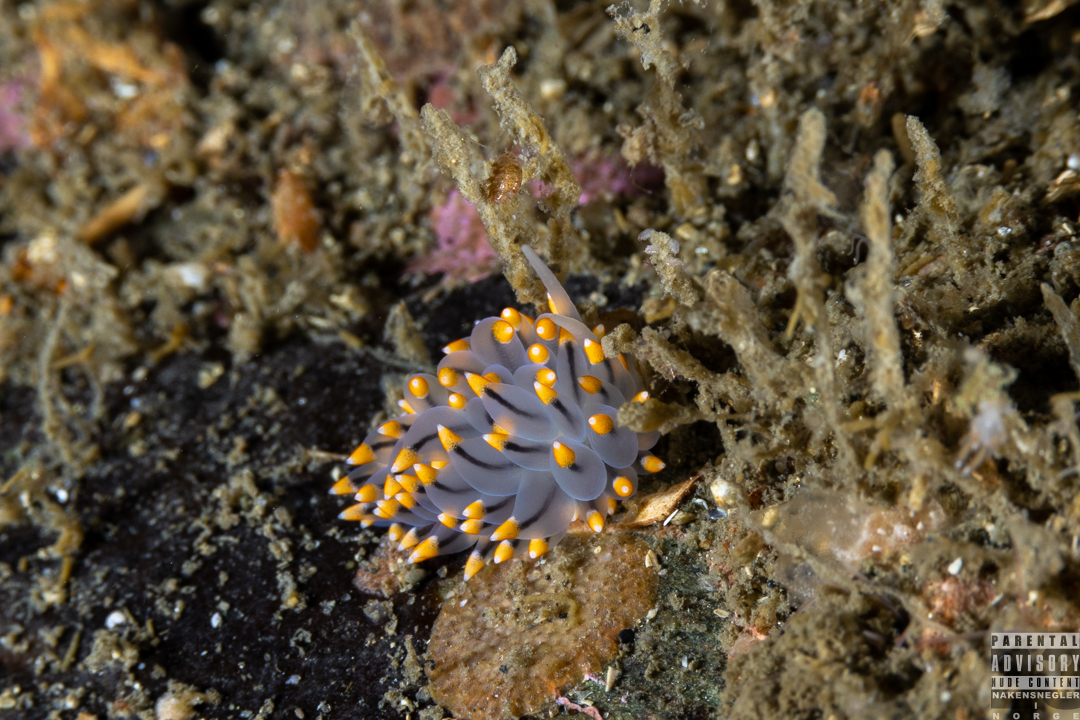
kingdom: Animalia
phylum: Mollusca
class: Gastropoda
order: Nudibranchia
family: Eubranchidae
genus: Eubranchus
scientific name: Eubranchus tricolor
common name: Painted balloon aeolis
